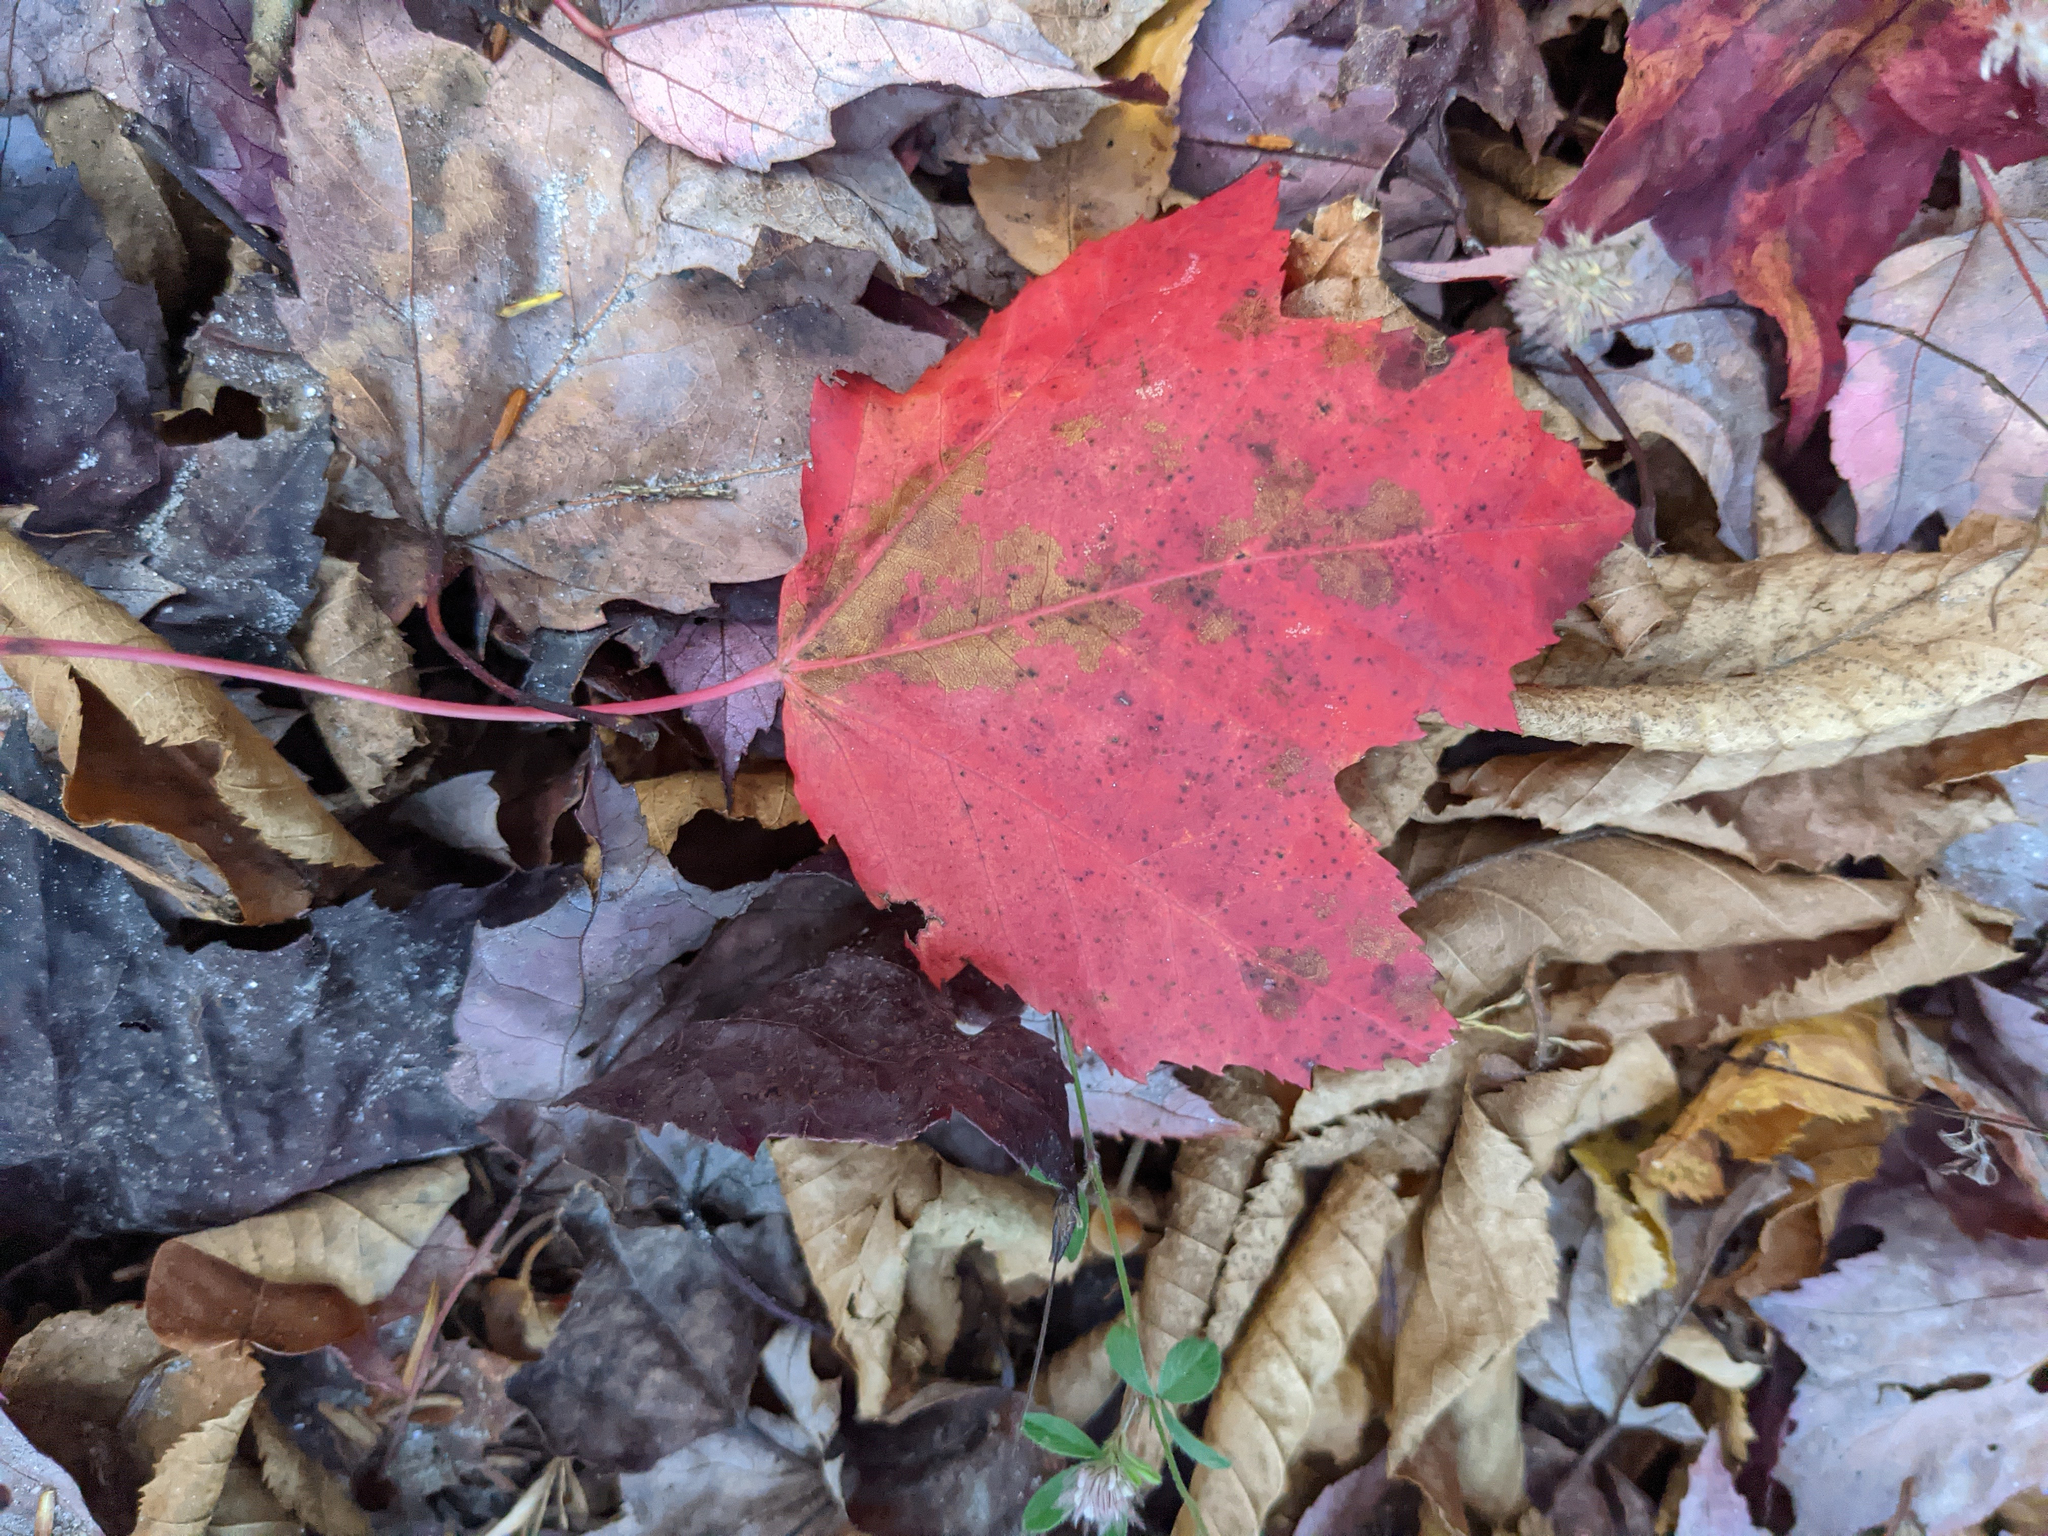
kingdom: Plantae
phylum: Tracheophyta
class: Magnoliopsida
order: Sapindales
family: Sapindaceae
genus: Acer
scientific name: Acer rubrum
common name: Red maple
